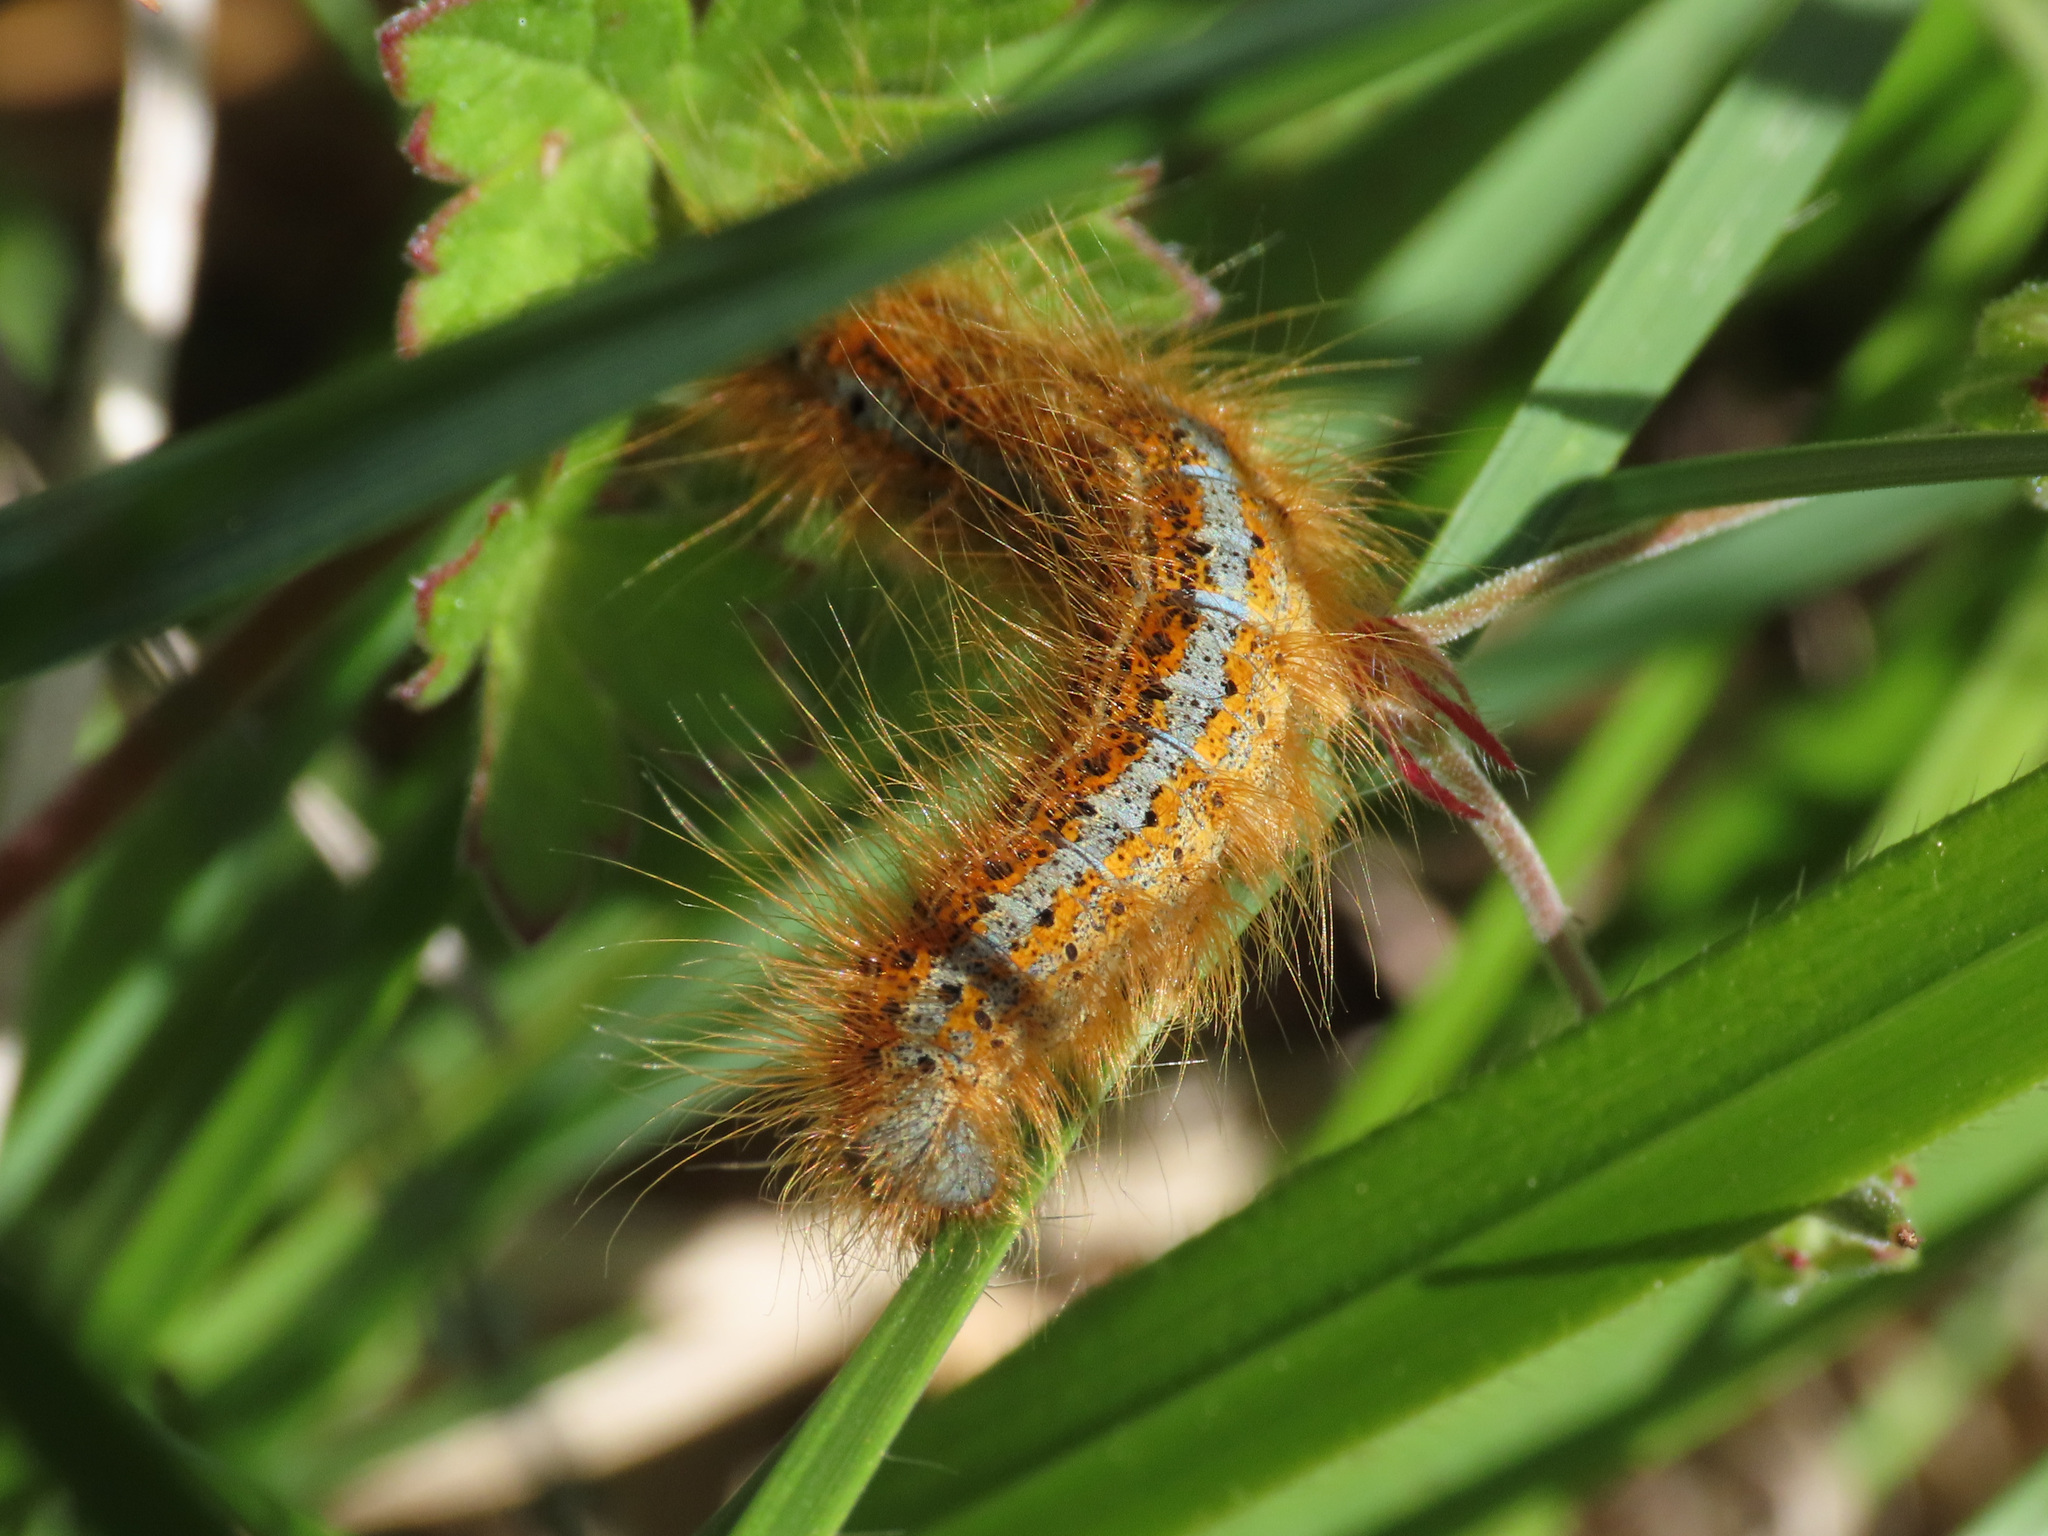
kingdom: Animalia
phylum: Arthropoda
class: Insecta
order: Lepidoptera
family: Lasiocampidae
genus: Malacosoma
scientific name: Malacosoma castrense
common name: Ground lackey
